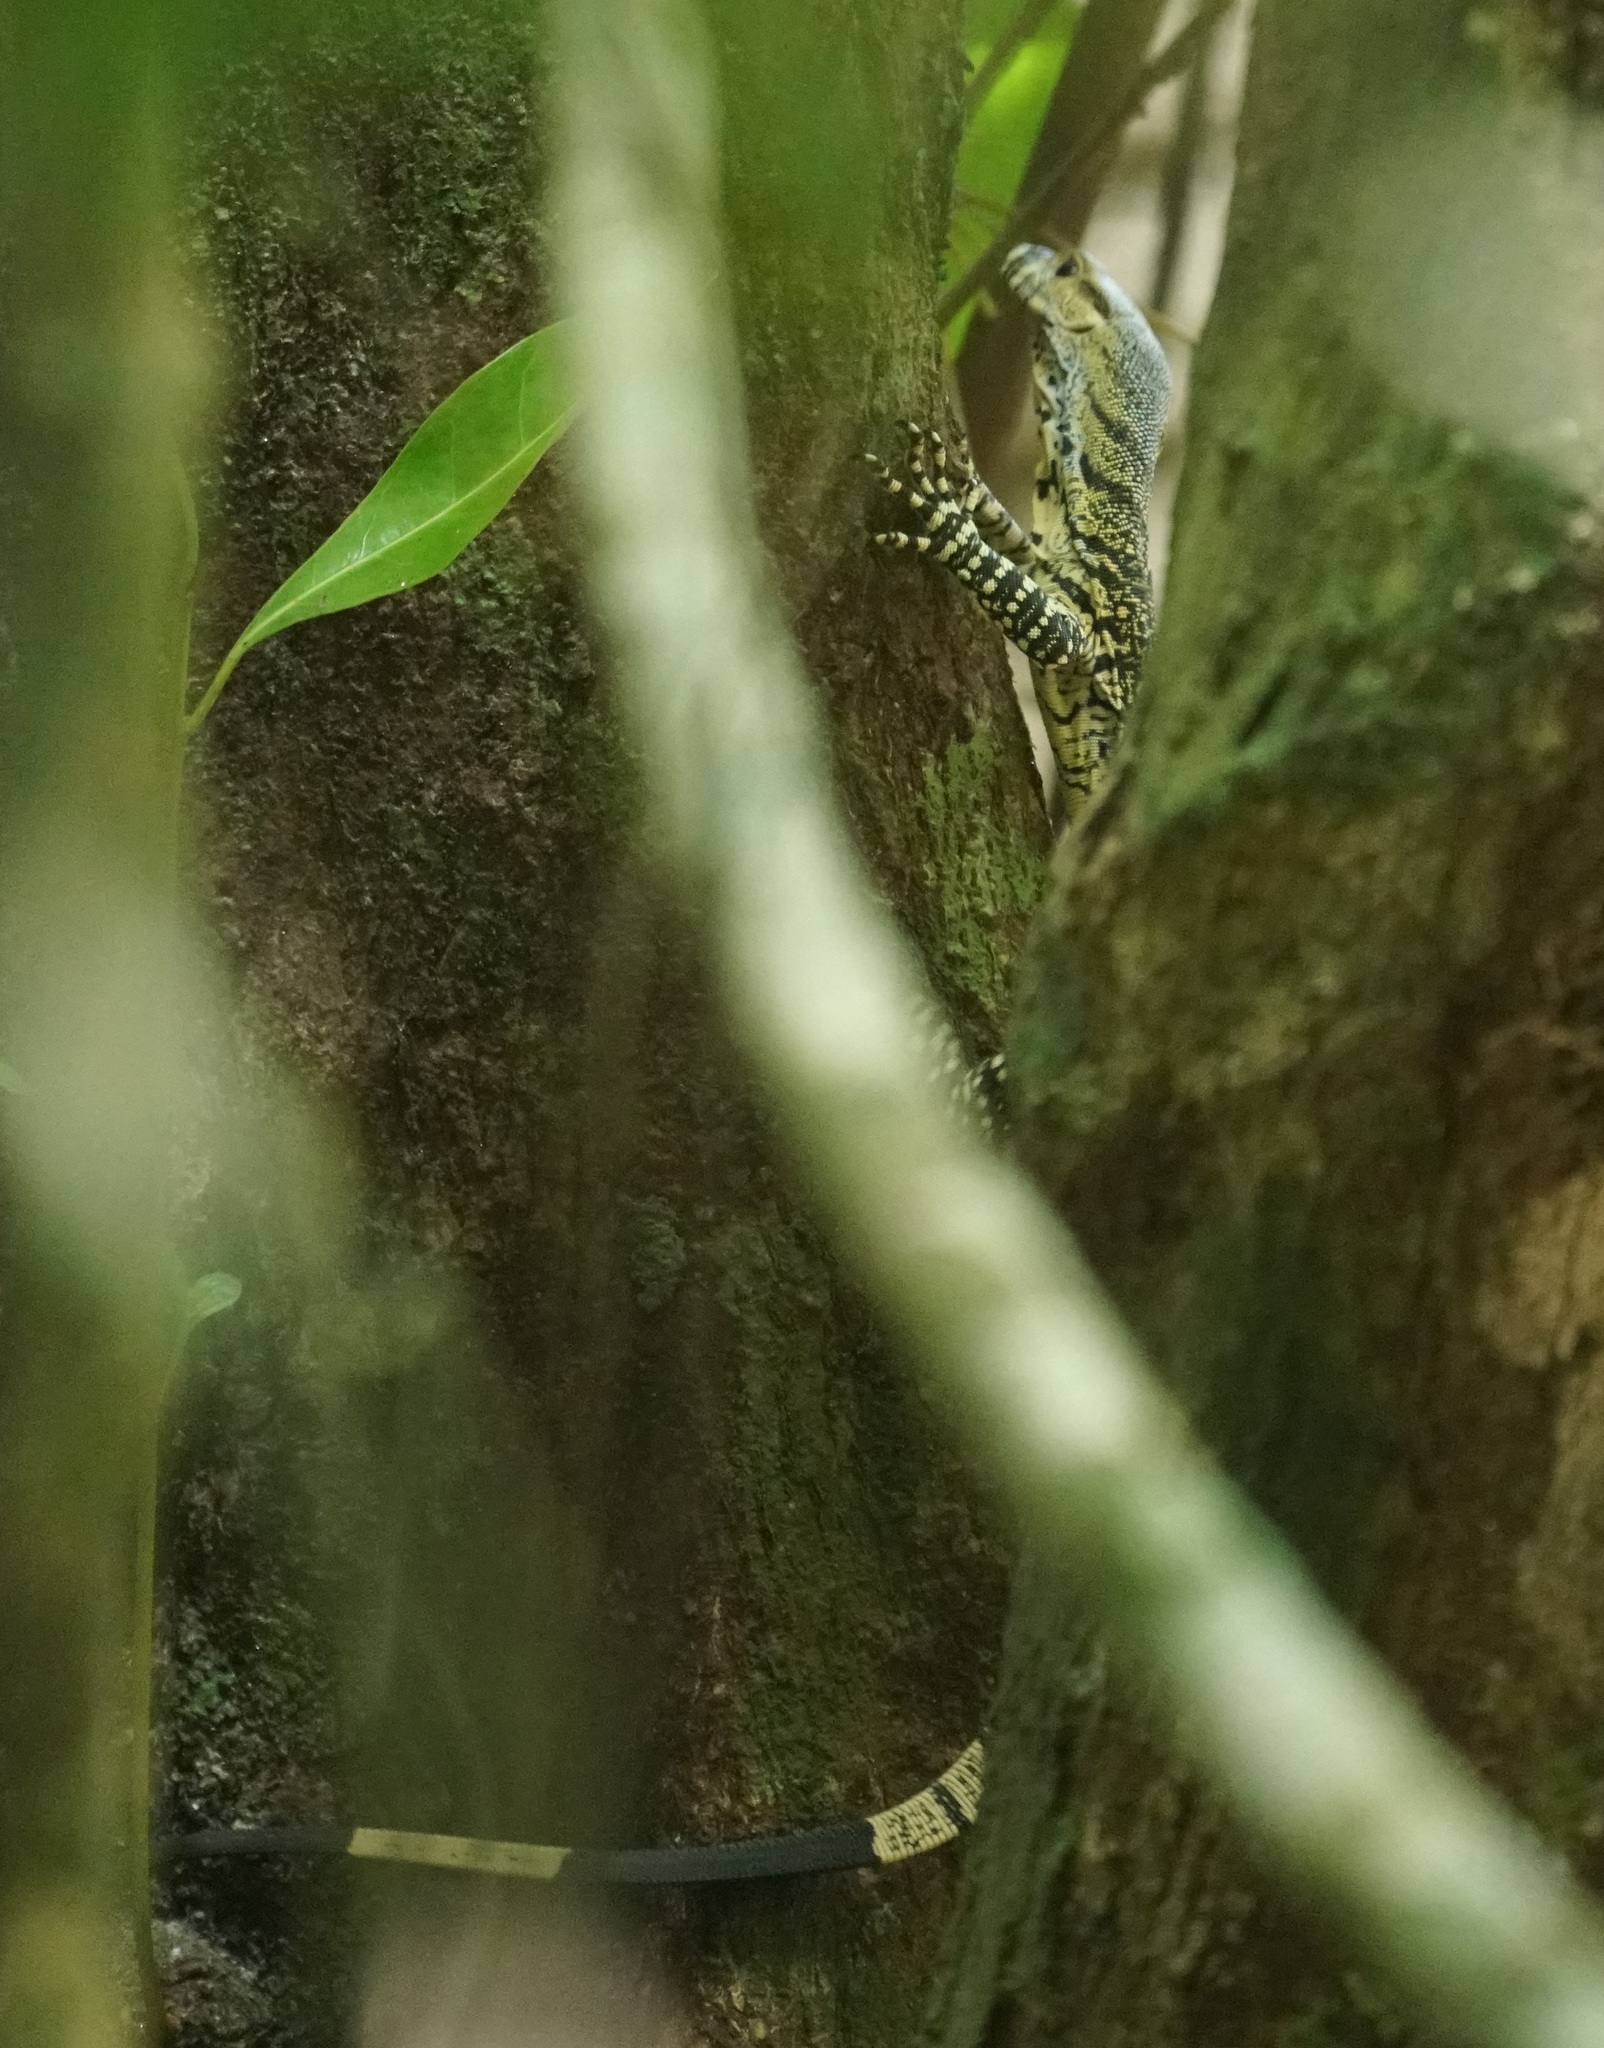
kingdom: Animalia
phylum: Chordata
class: Squamata
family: Varanidae
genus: Varanus
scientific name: Varanus varius
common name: Lace monitor
